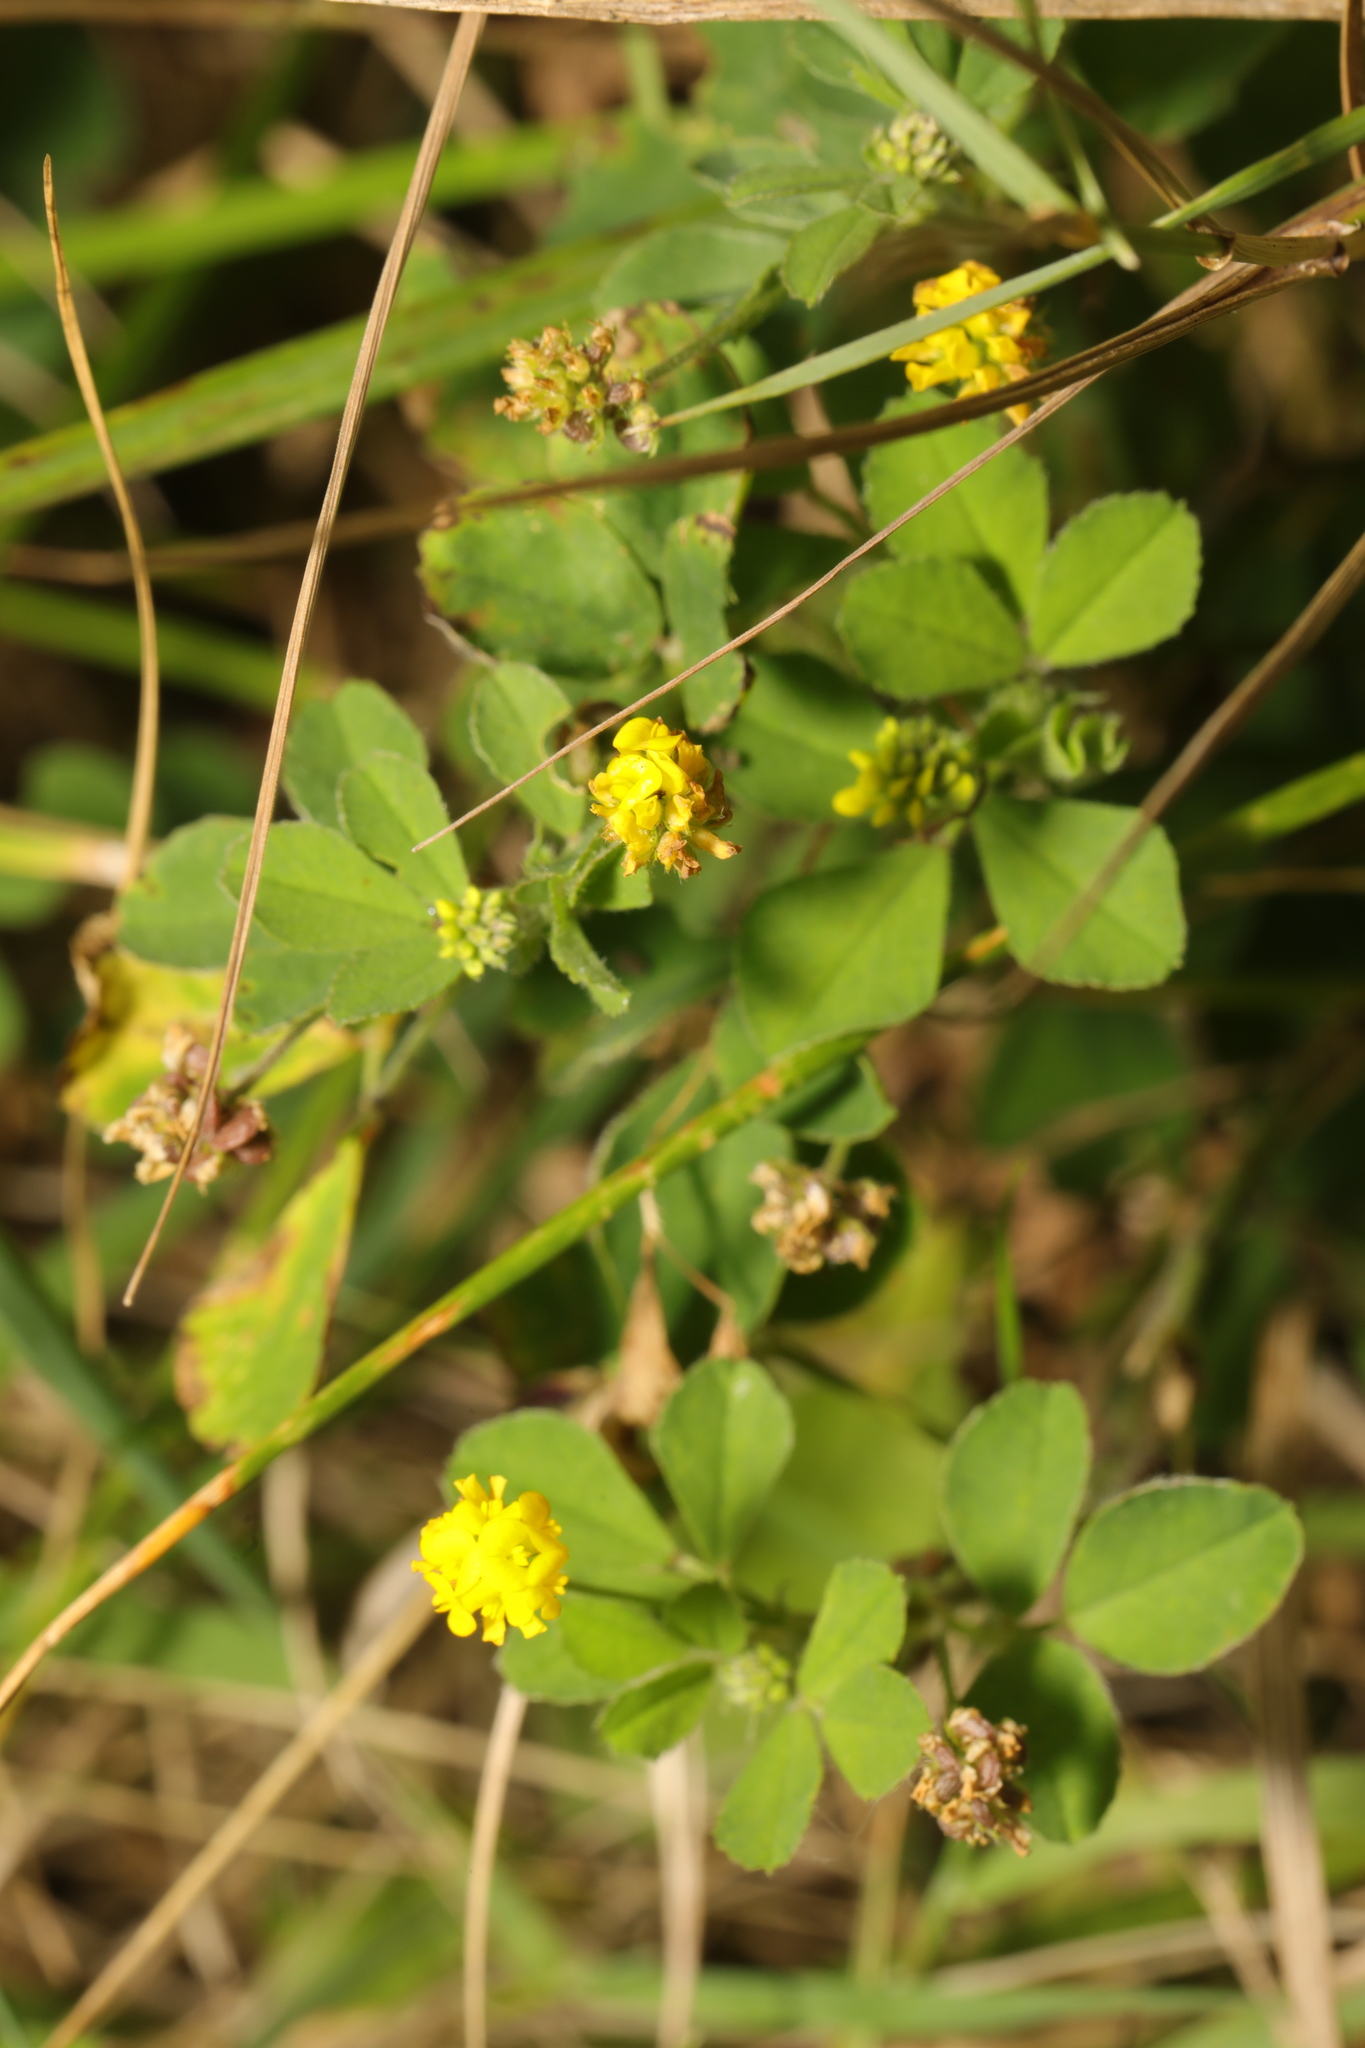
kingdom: Plantae
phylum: Tracheophyta
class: Magnoliopsida
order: Fabales
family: Fabaceae
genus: Medicago
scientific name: Medicago lupulina
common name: Black medick
